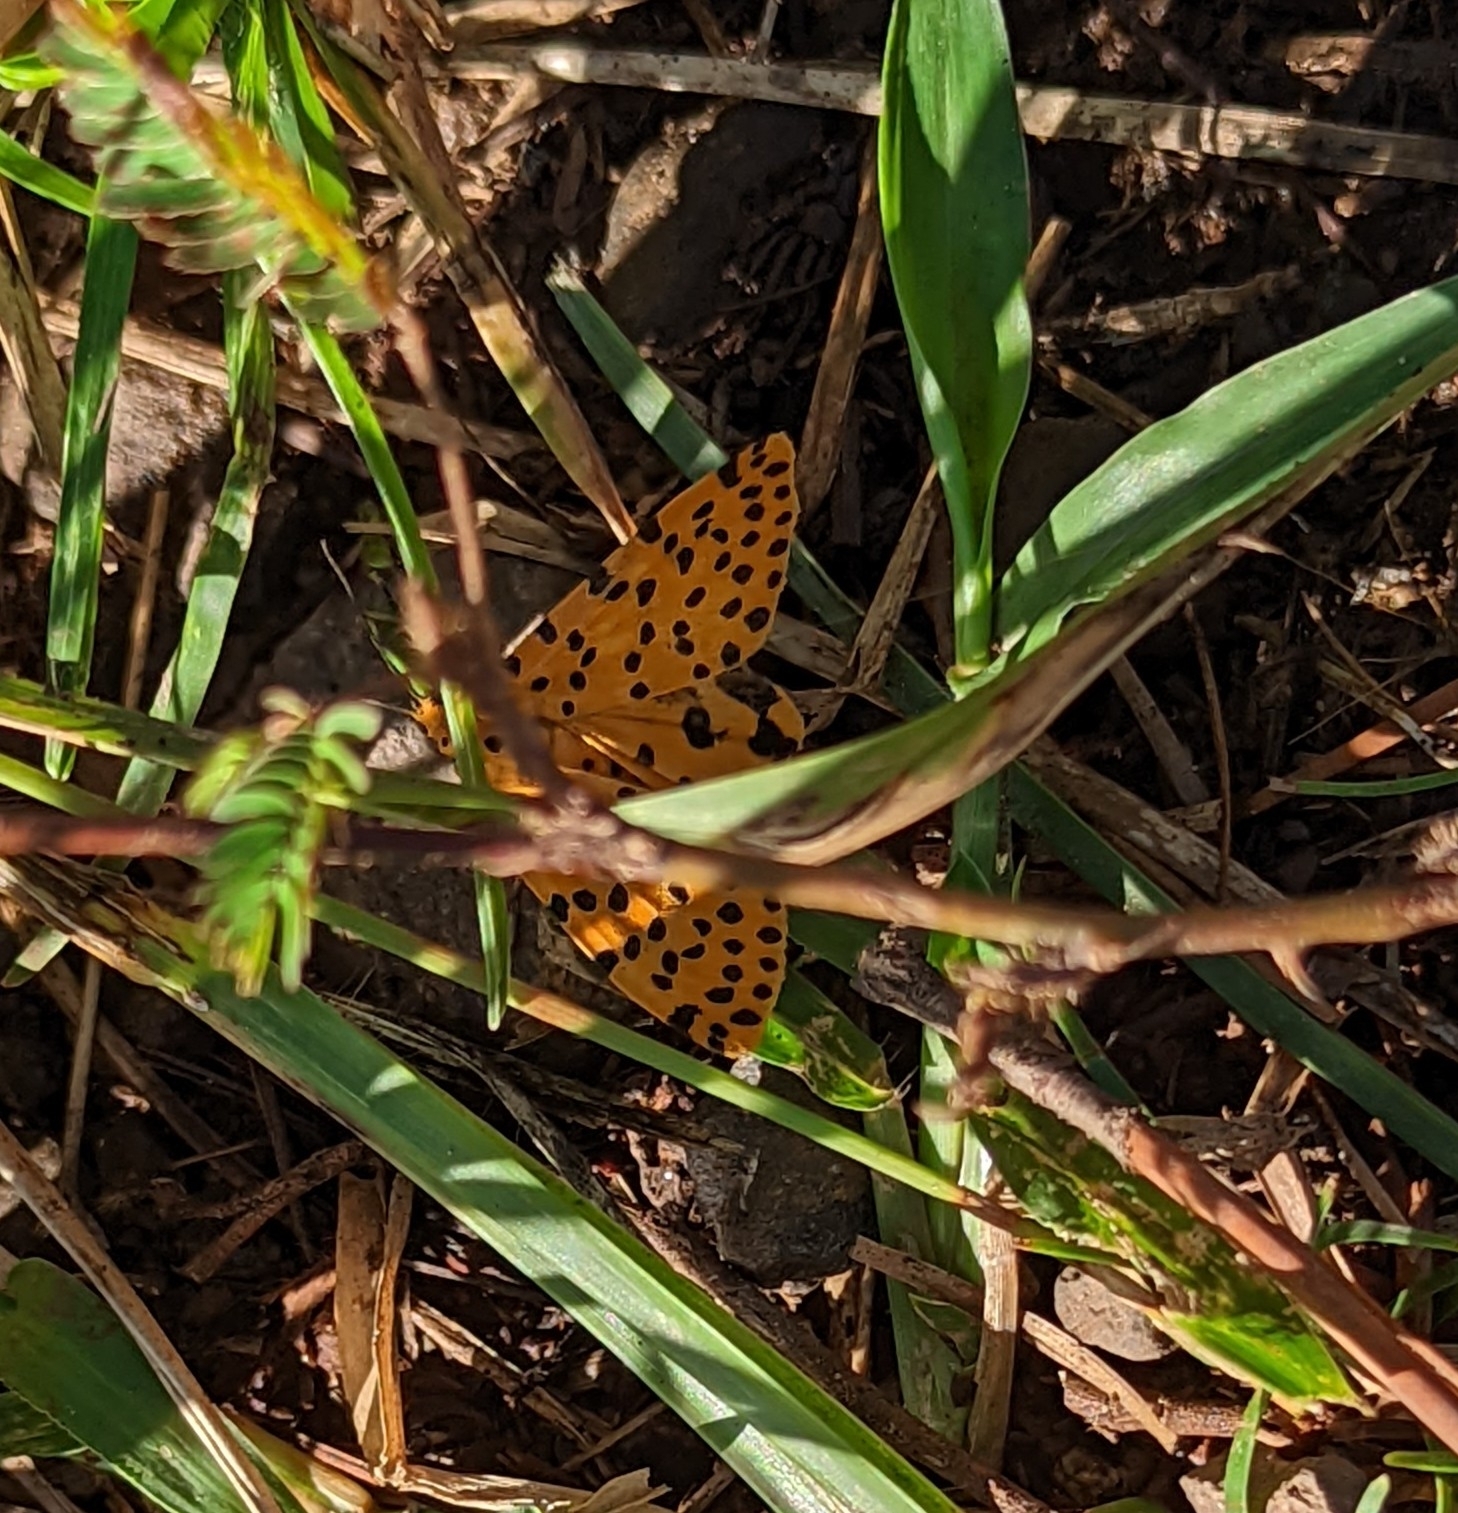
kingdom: Animalia
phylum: Arthropoda
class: Insecta
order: Lepidoptera
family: Erebidae
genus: Argina
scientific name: Argina astrea
